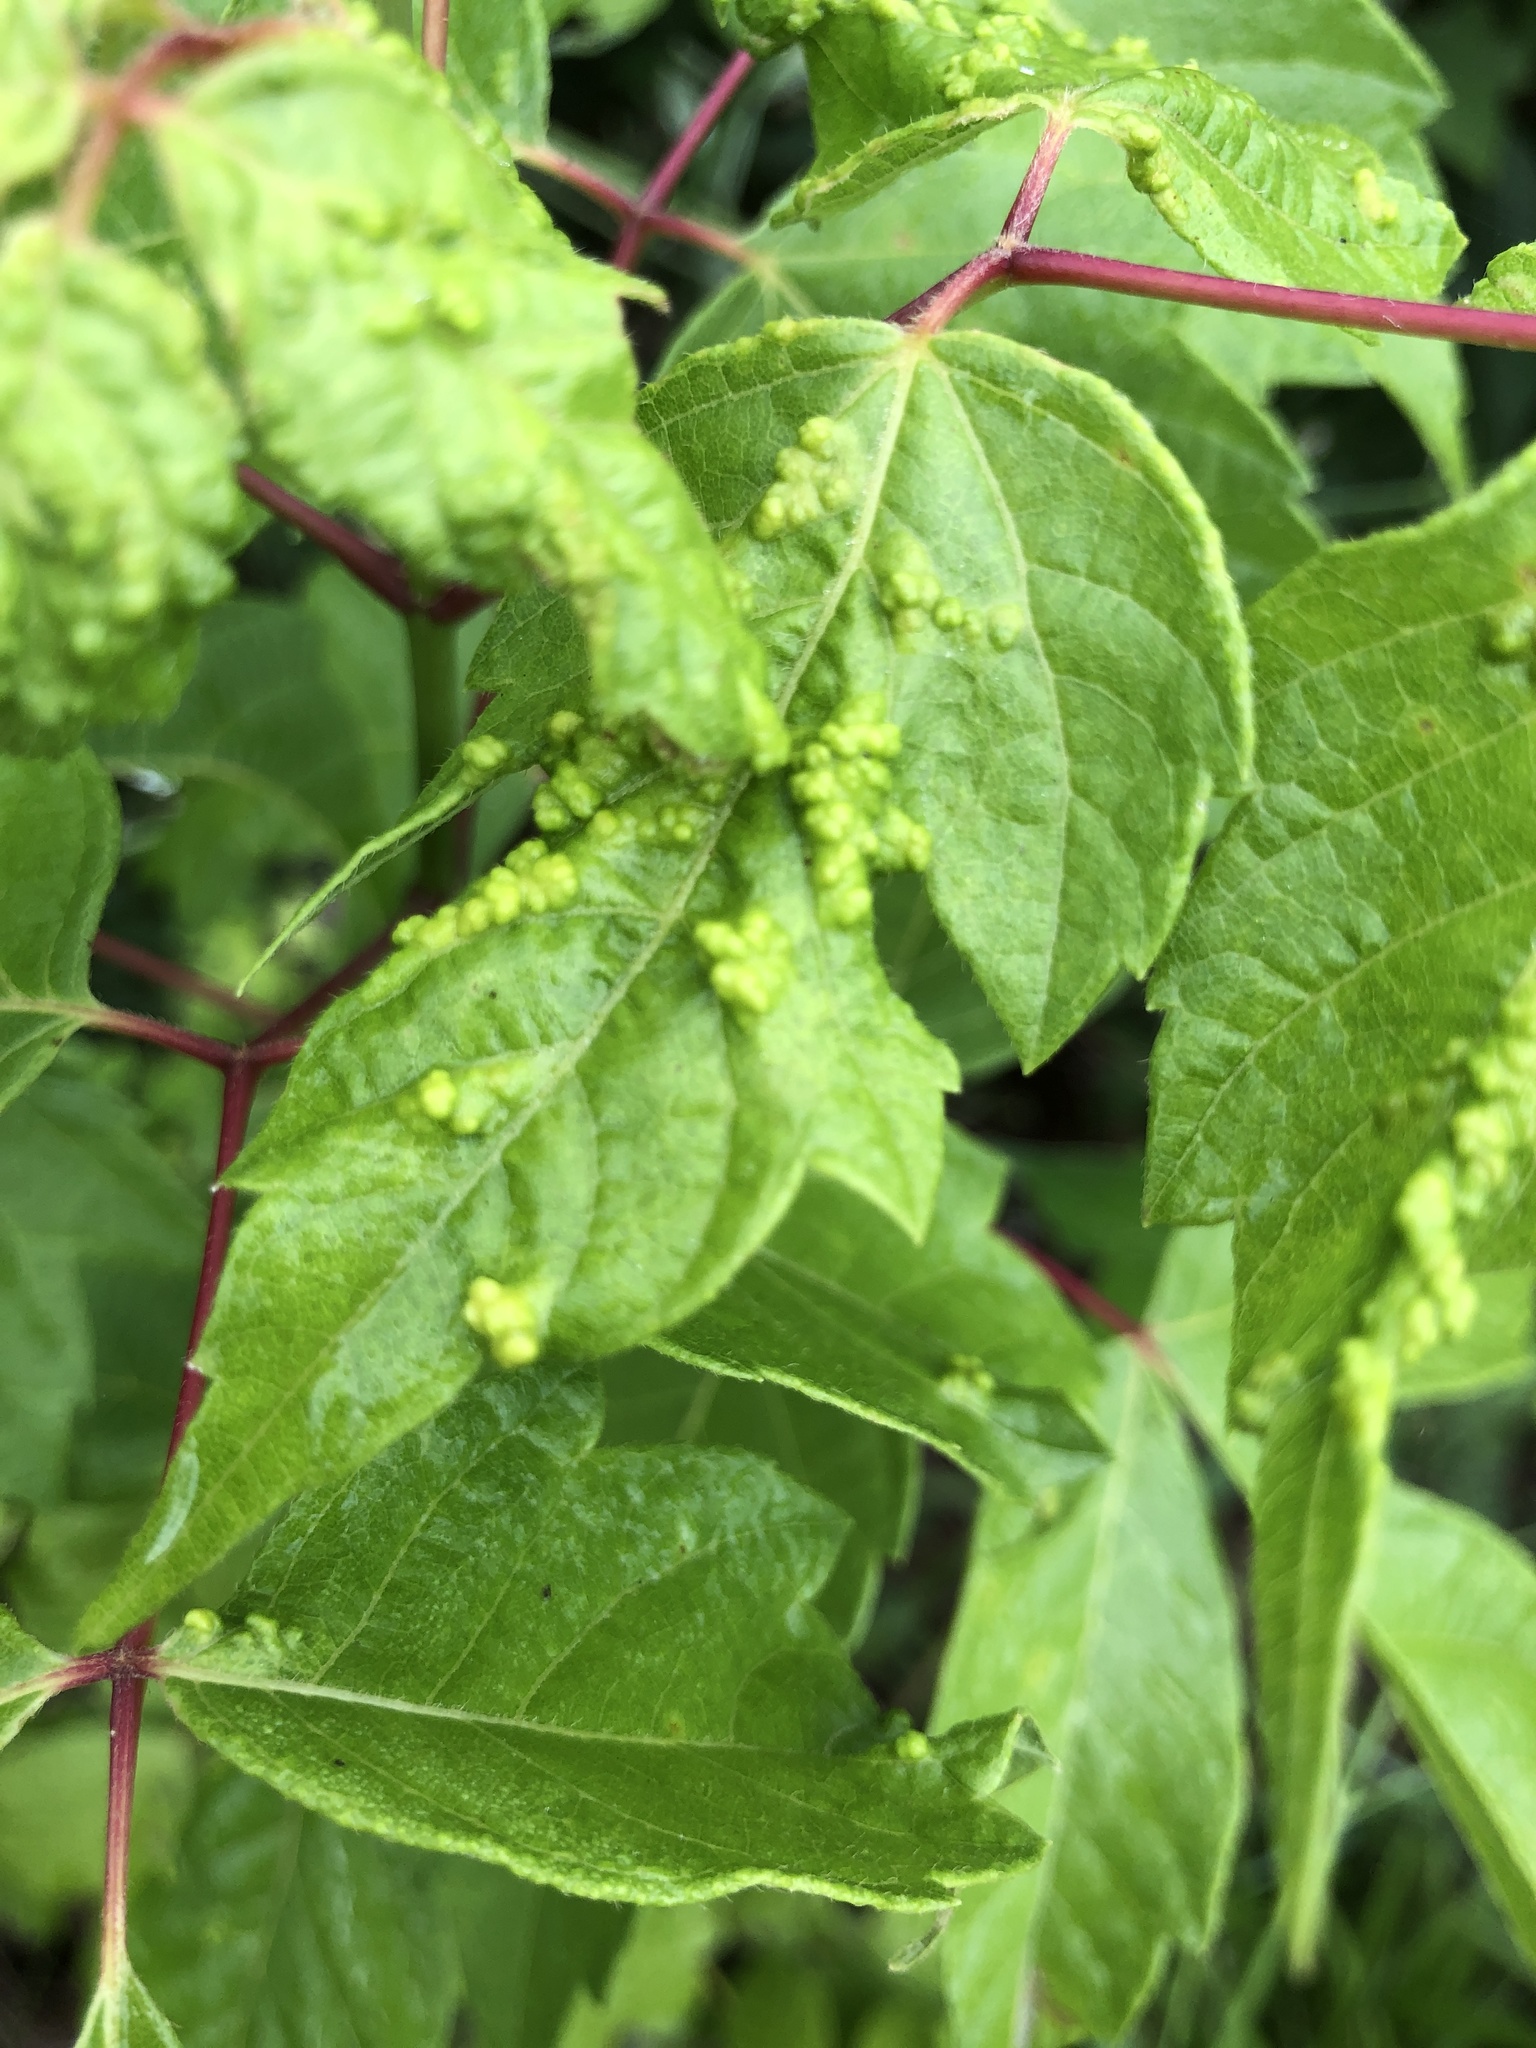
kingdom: Animalia
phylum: Arthropoda
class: Arachnida
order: Trombidiformes
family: Eriophyidae
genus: Aceria
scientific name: Aceria
